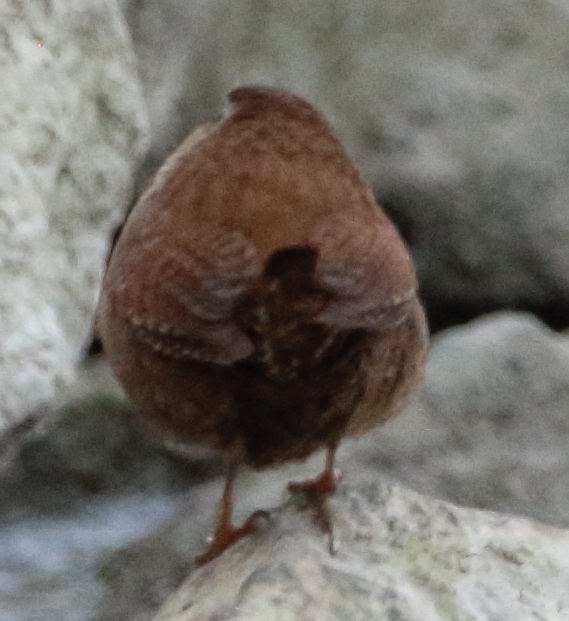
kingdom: Animalia
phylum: Chordata
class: Aves
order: Passeriformes
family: Troglodytidae
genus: Troglodytes
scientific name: Troglodytes troglodytes
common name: Eurasian wren
